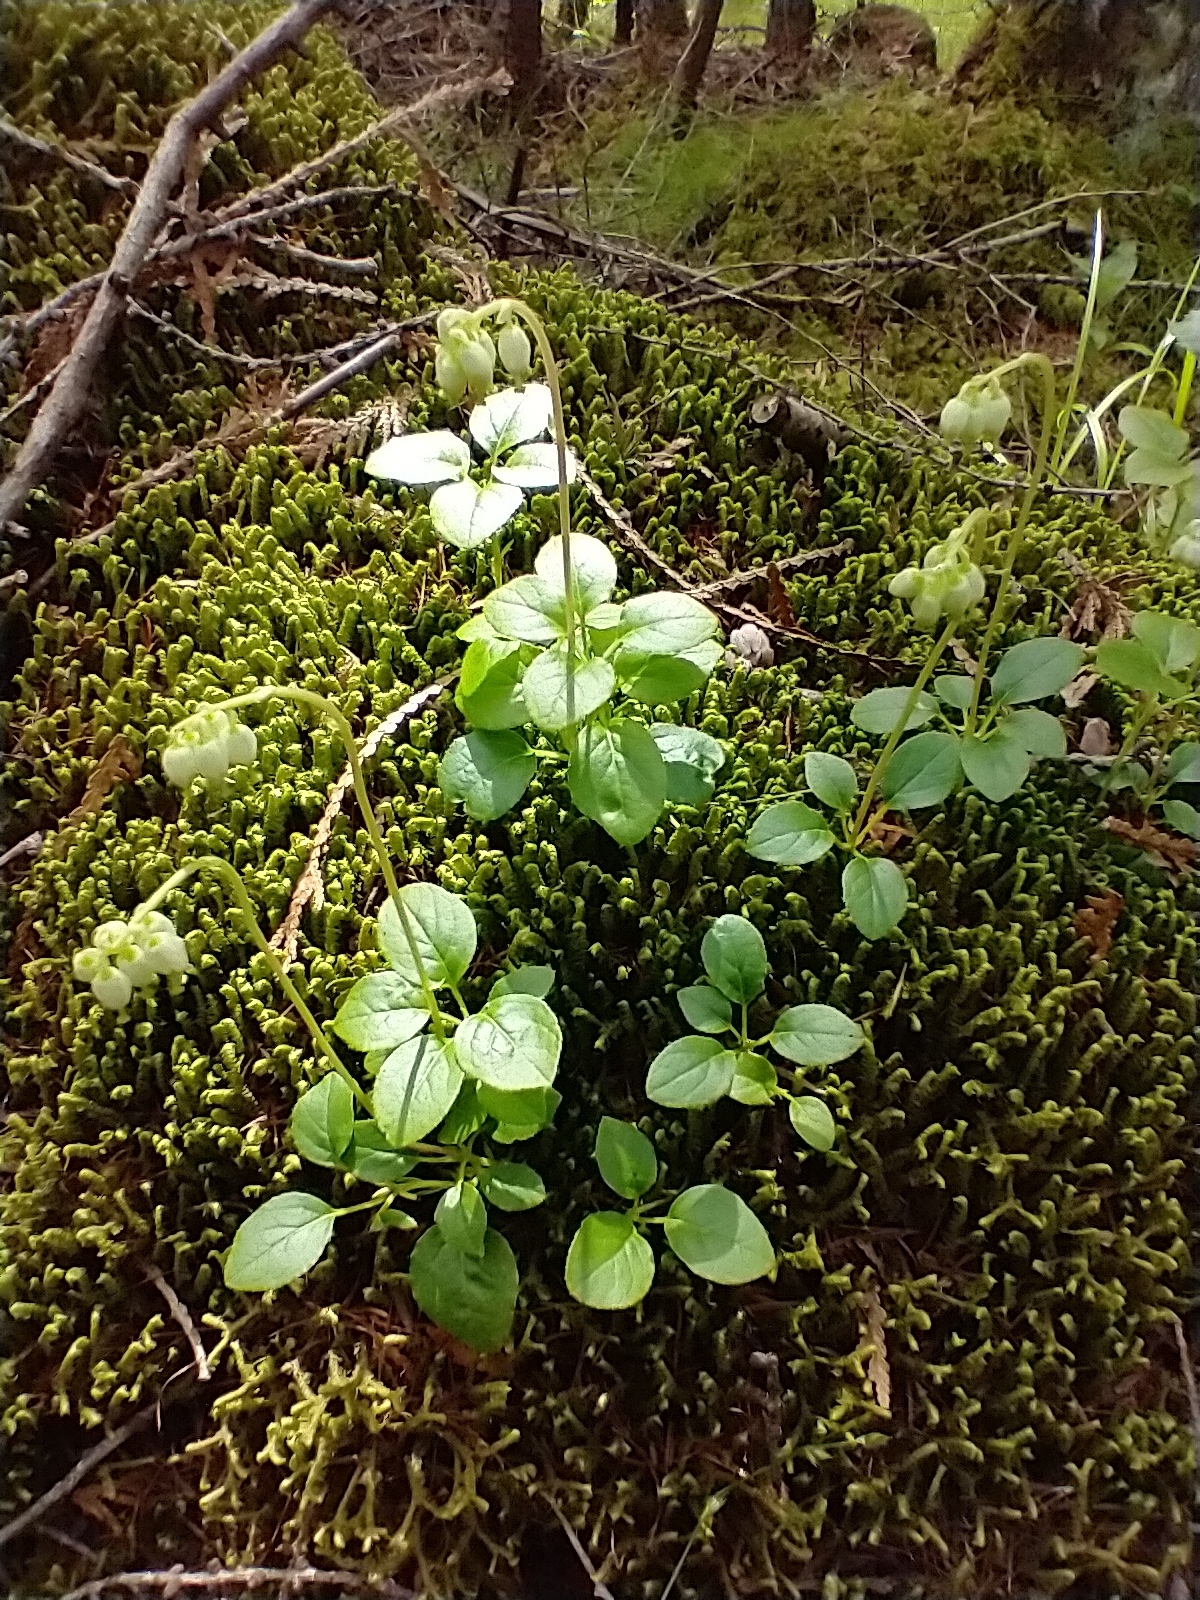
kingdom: Plantae
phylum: Tracheophyta
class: Magnoliopsida
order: Ericales
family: Ericaceae
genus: Orthilia
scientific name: Orthilia secunda
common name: One-sided orthilia
